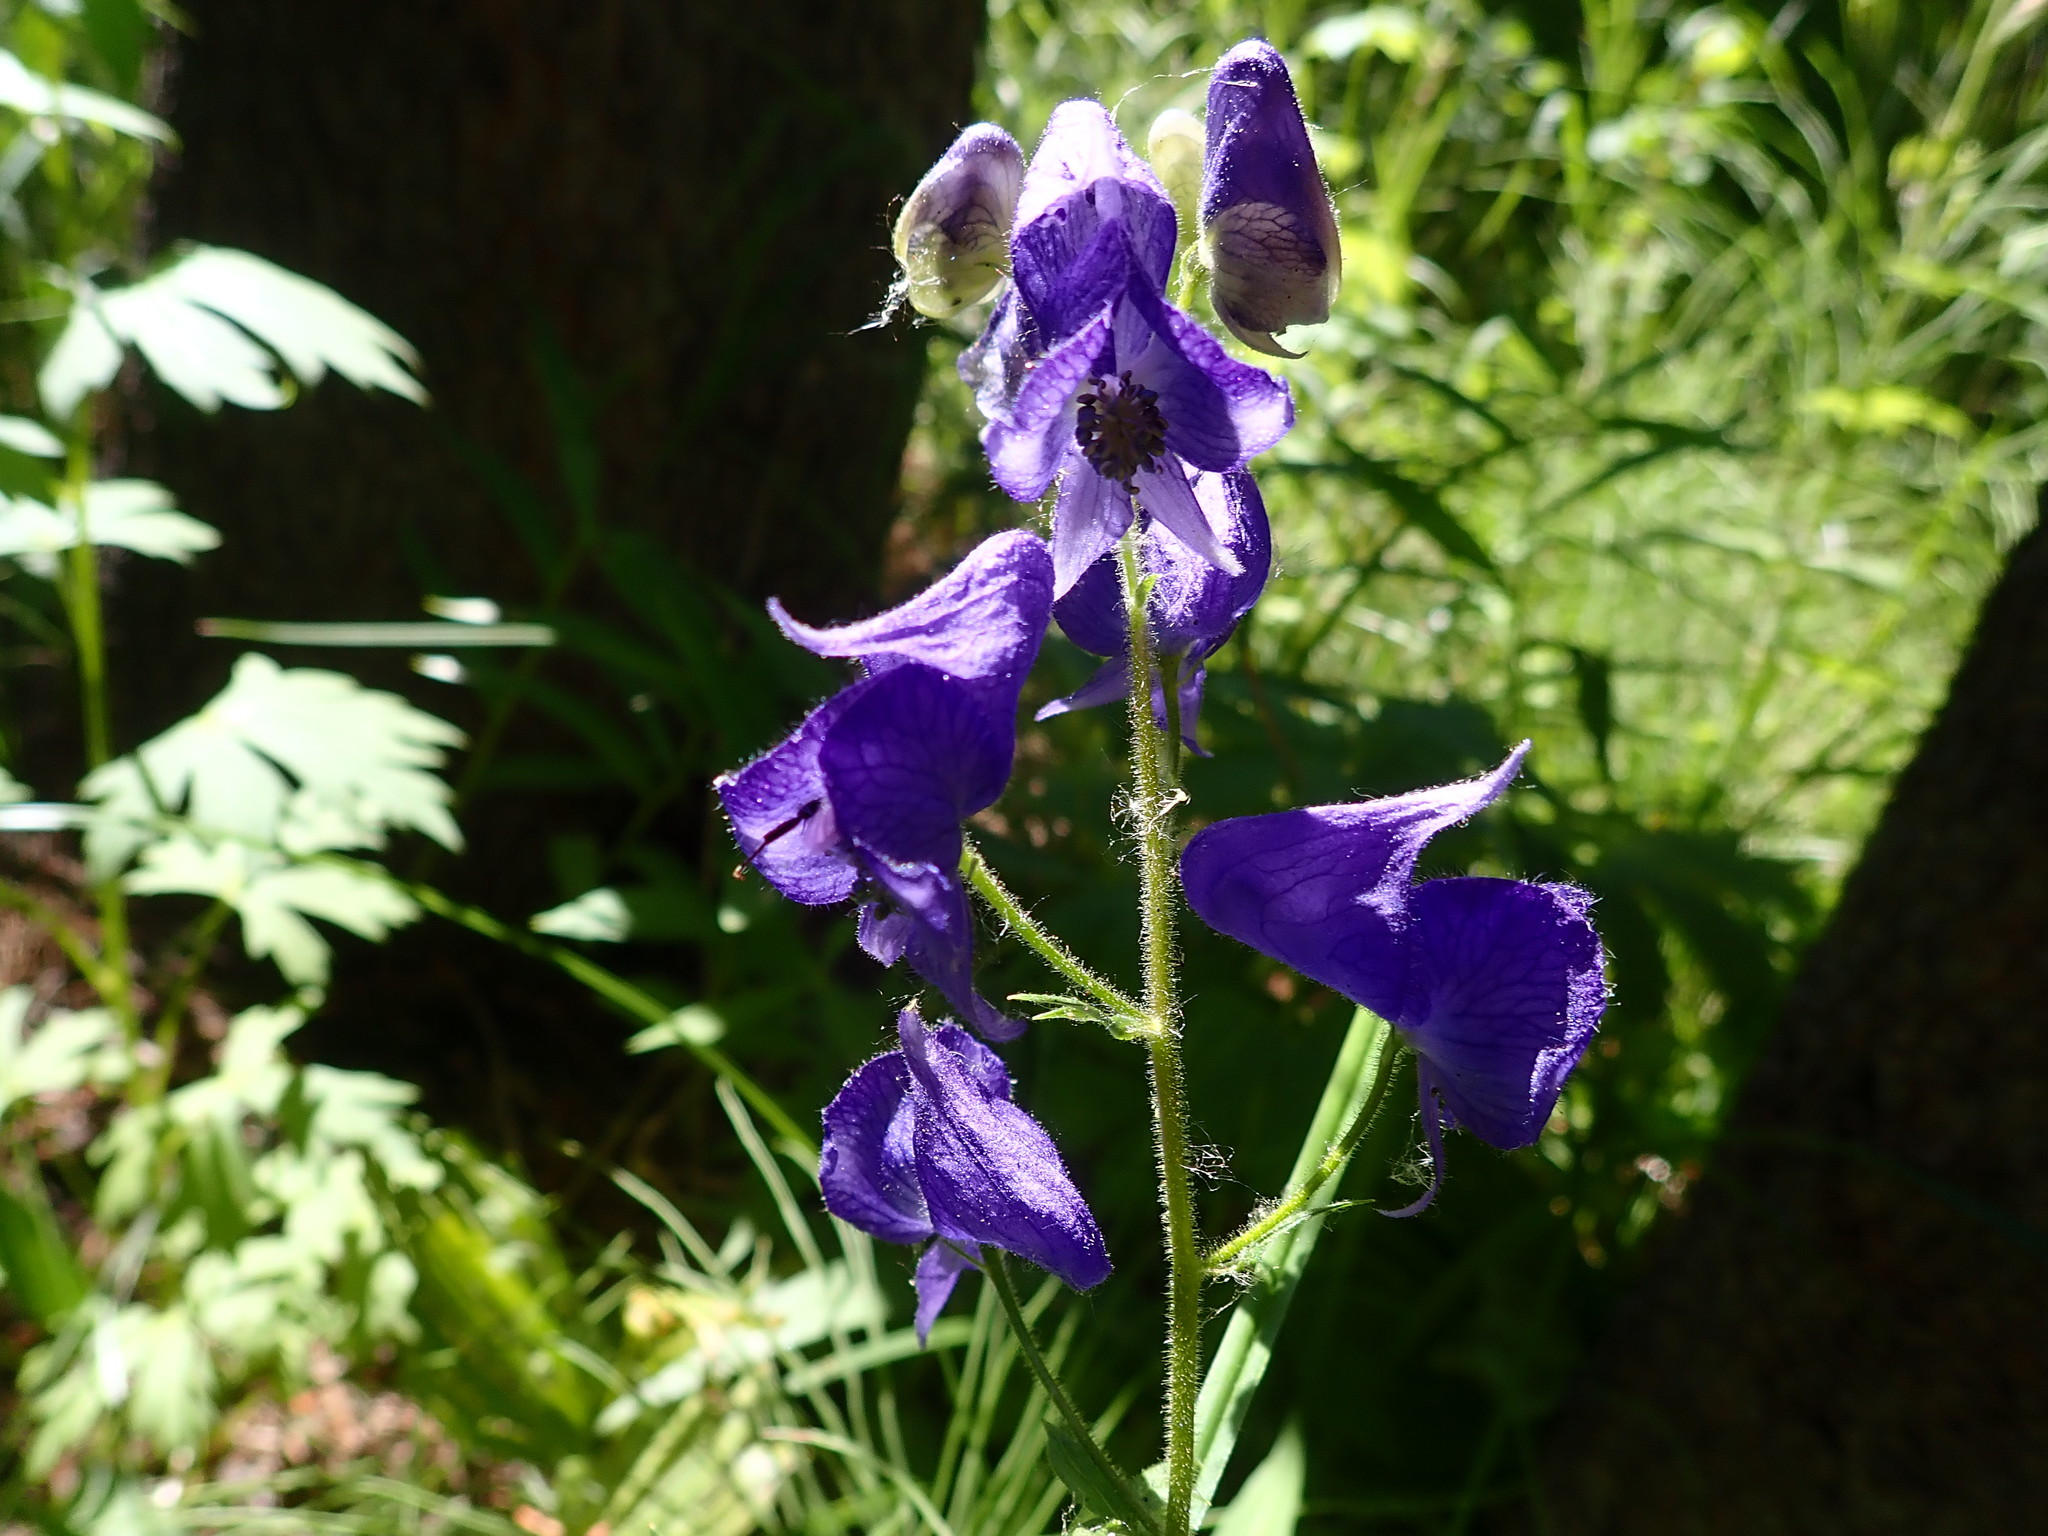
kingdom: Plantae
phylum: Tracheophyta
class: Magnoliopsida
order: Ranunculales
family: Ranunculaceae
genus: Aconitum
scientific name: Aconitum columbianum
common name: Columbia aconite
